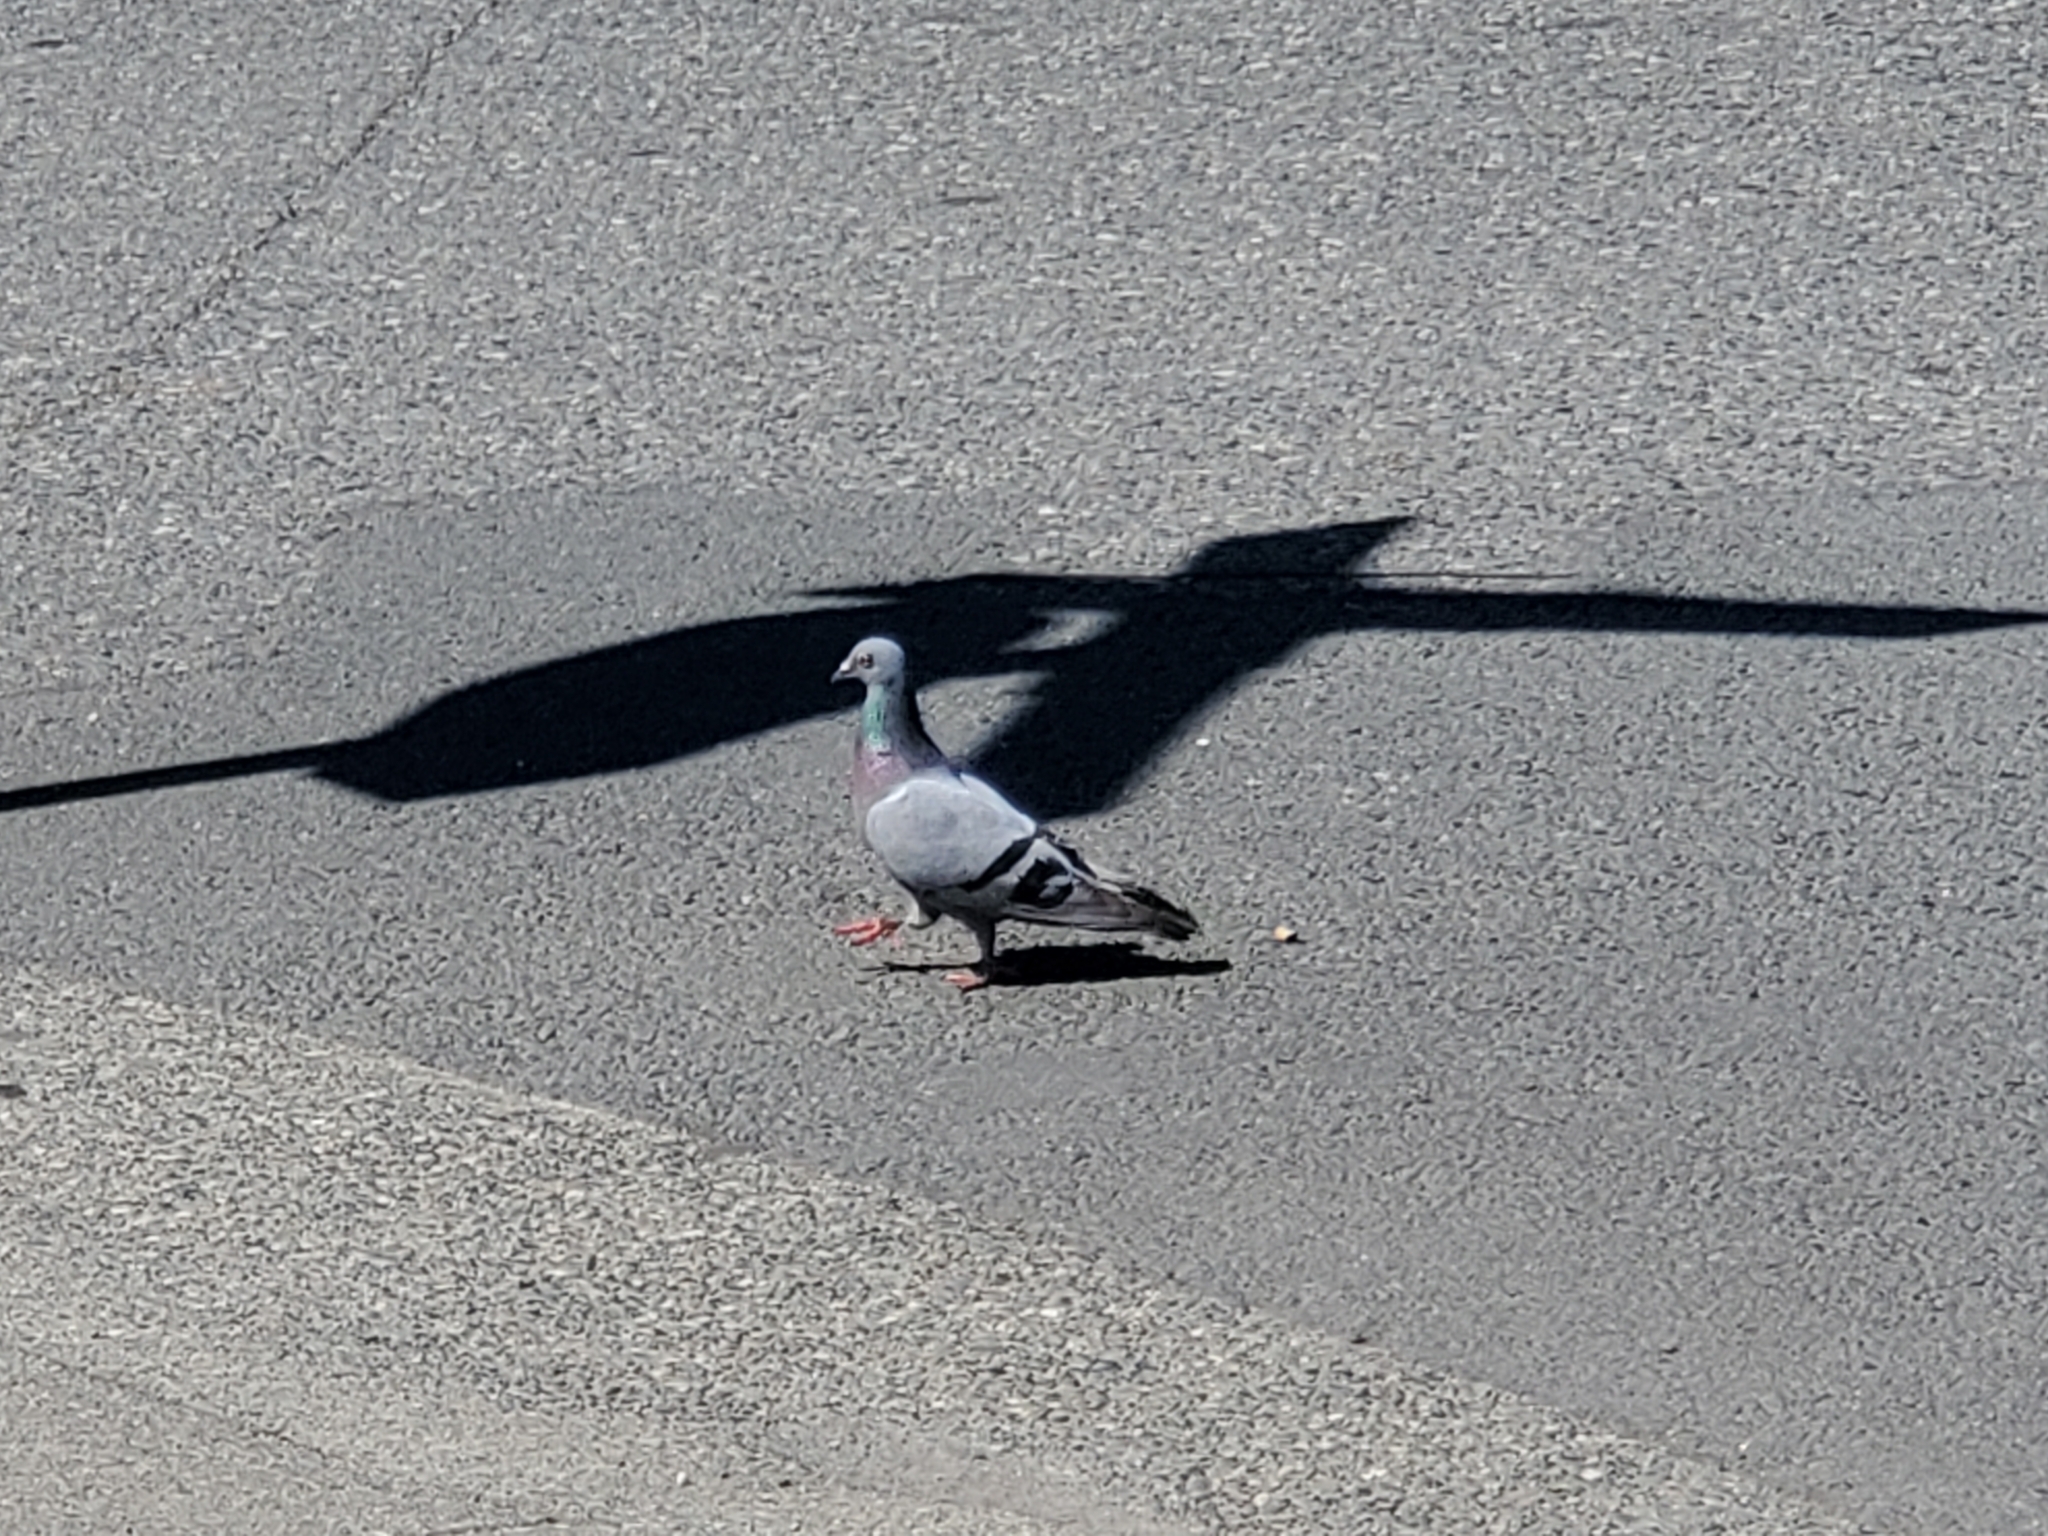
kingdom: Animalia
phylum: Chordata
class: Aves
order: Columbiformes
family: Columbidae
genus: Columba
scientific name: Columba livia
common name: Rock pigeon
